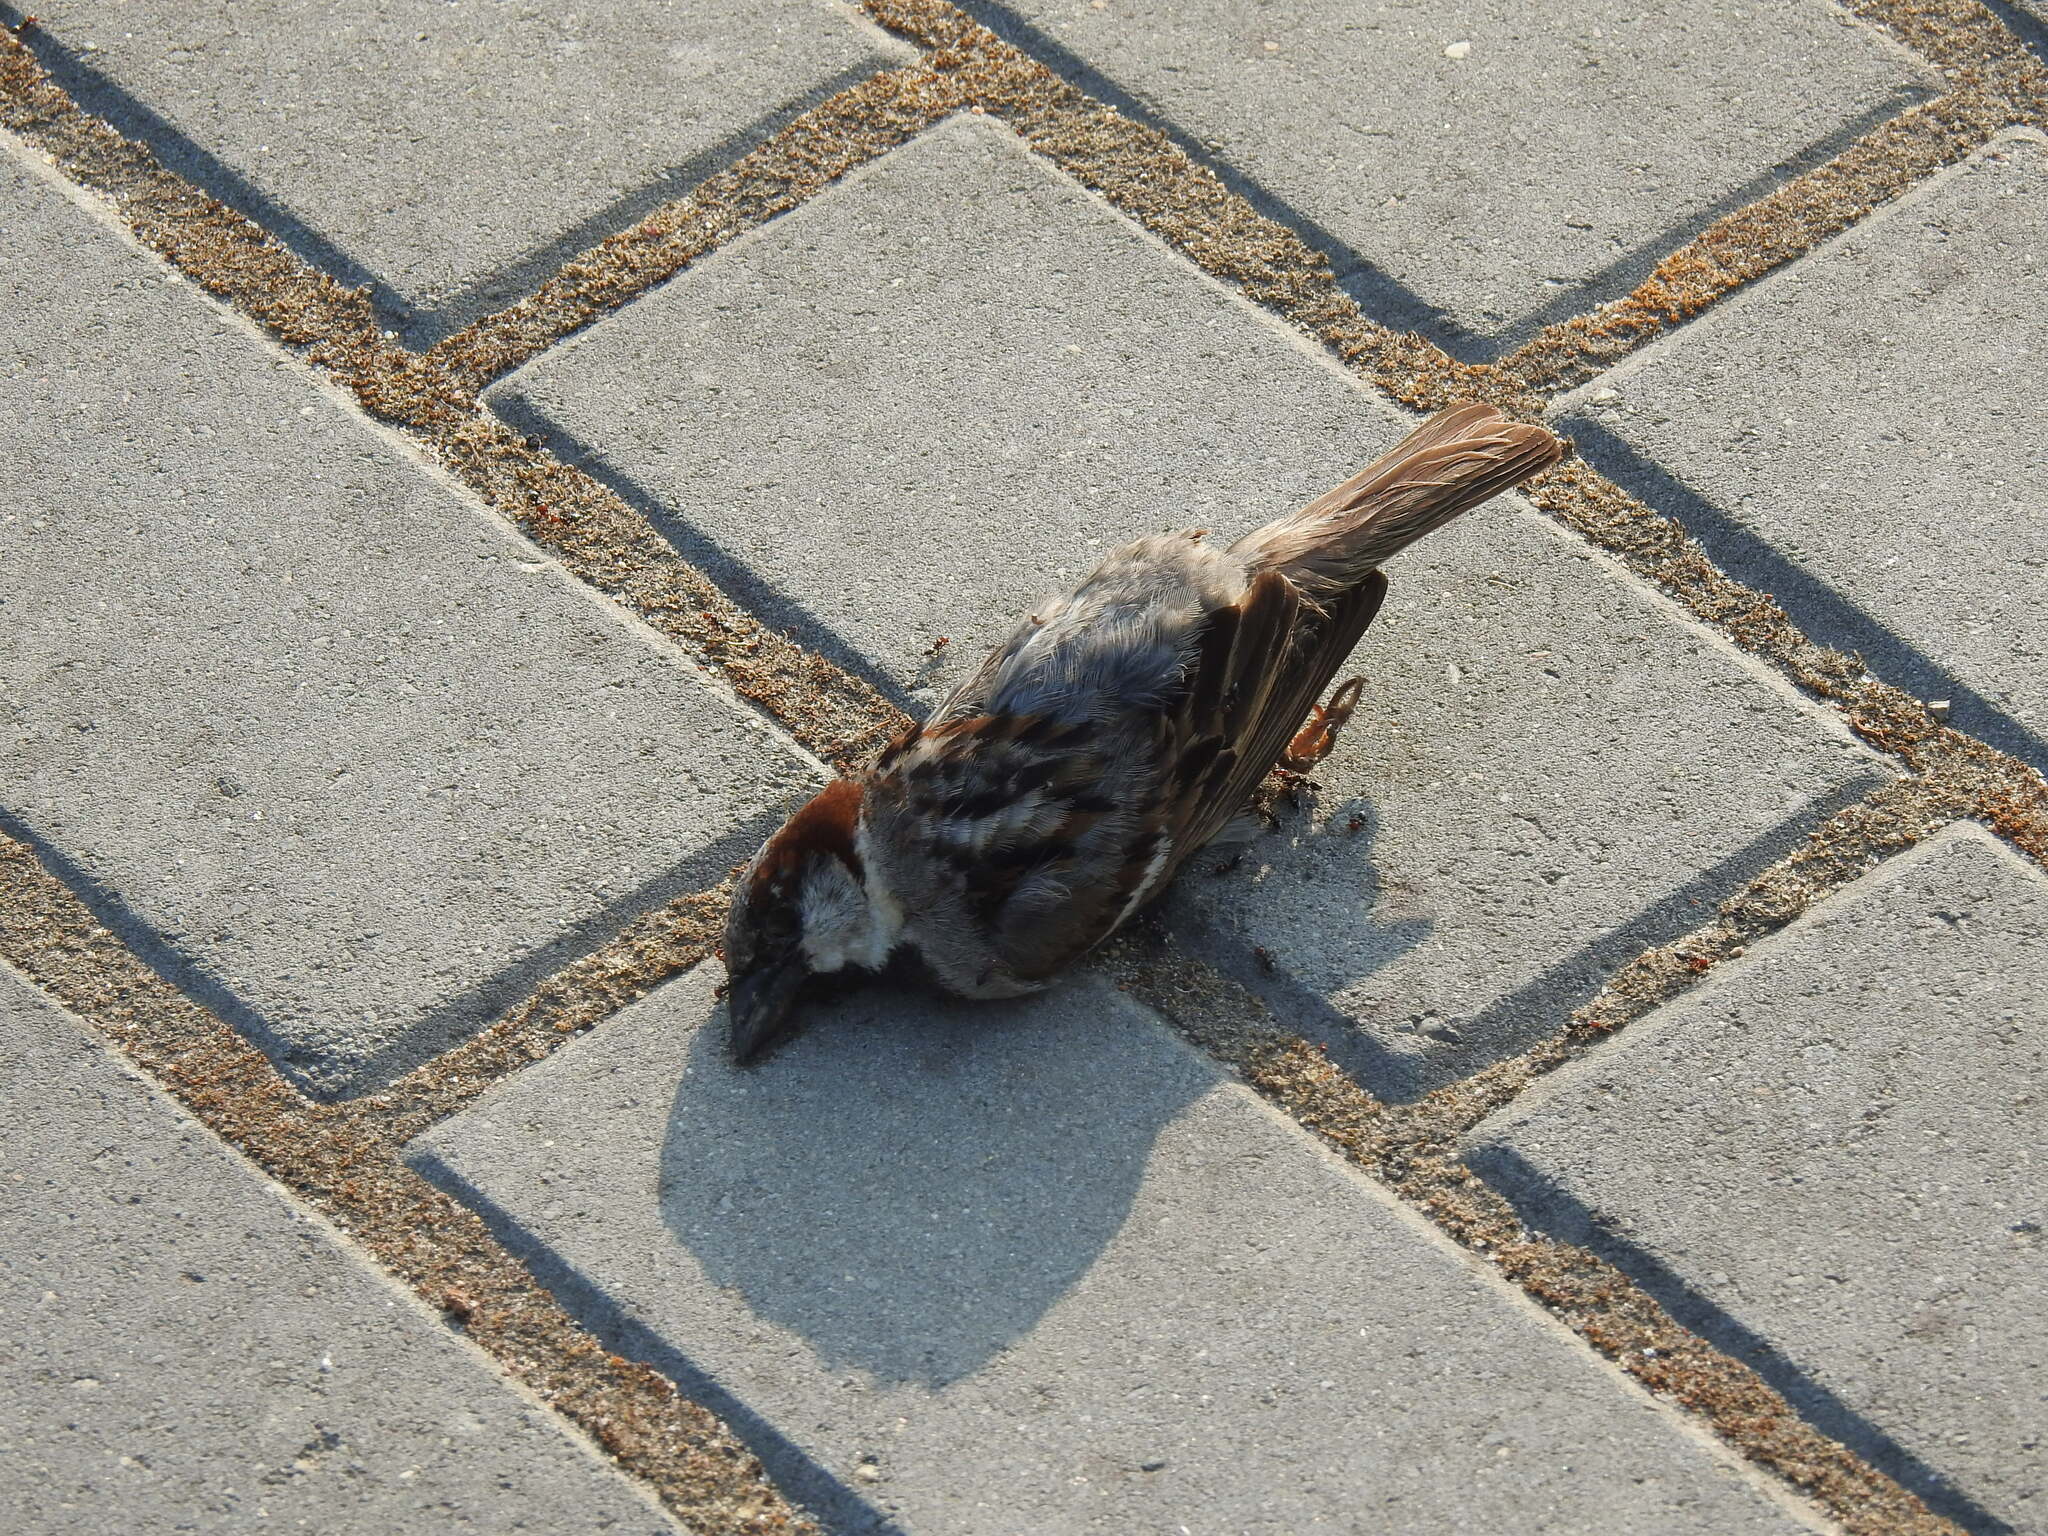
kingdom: Animalia
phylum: Chordata
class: Aves
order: Passeriformes
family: Passeridae
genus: Passer
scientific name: Passer domesticus
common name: House sparrow
